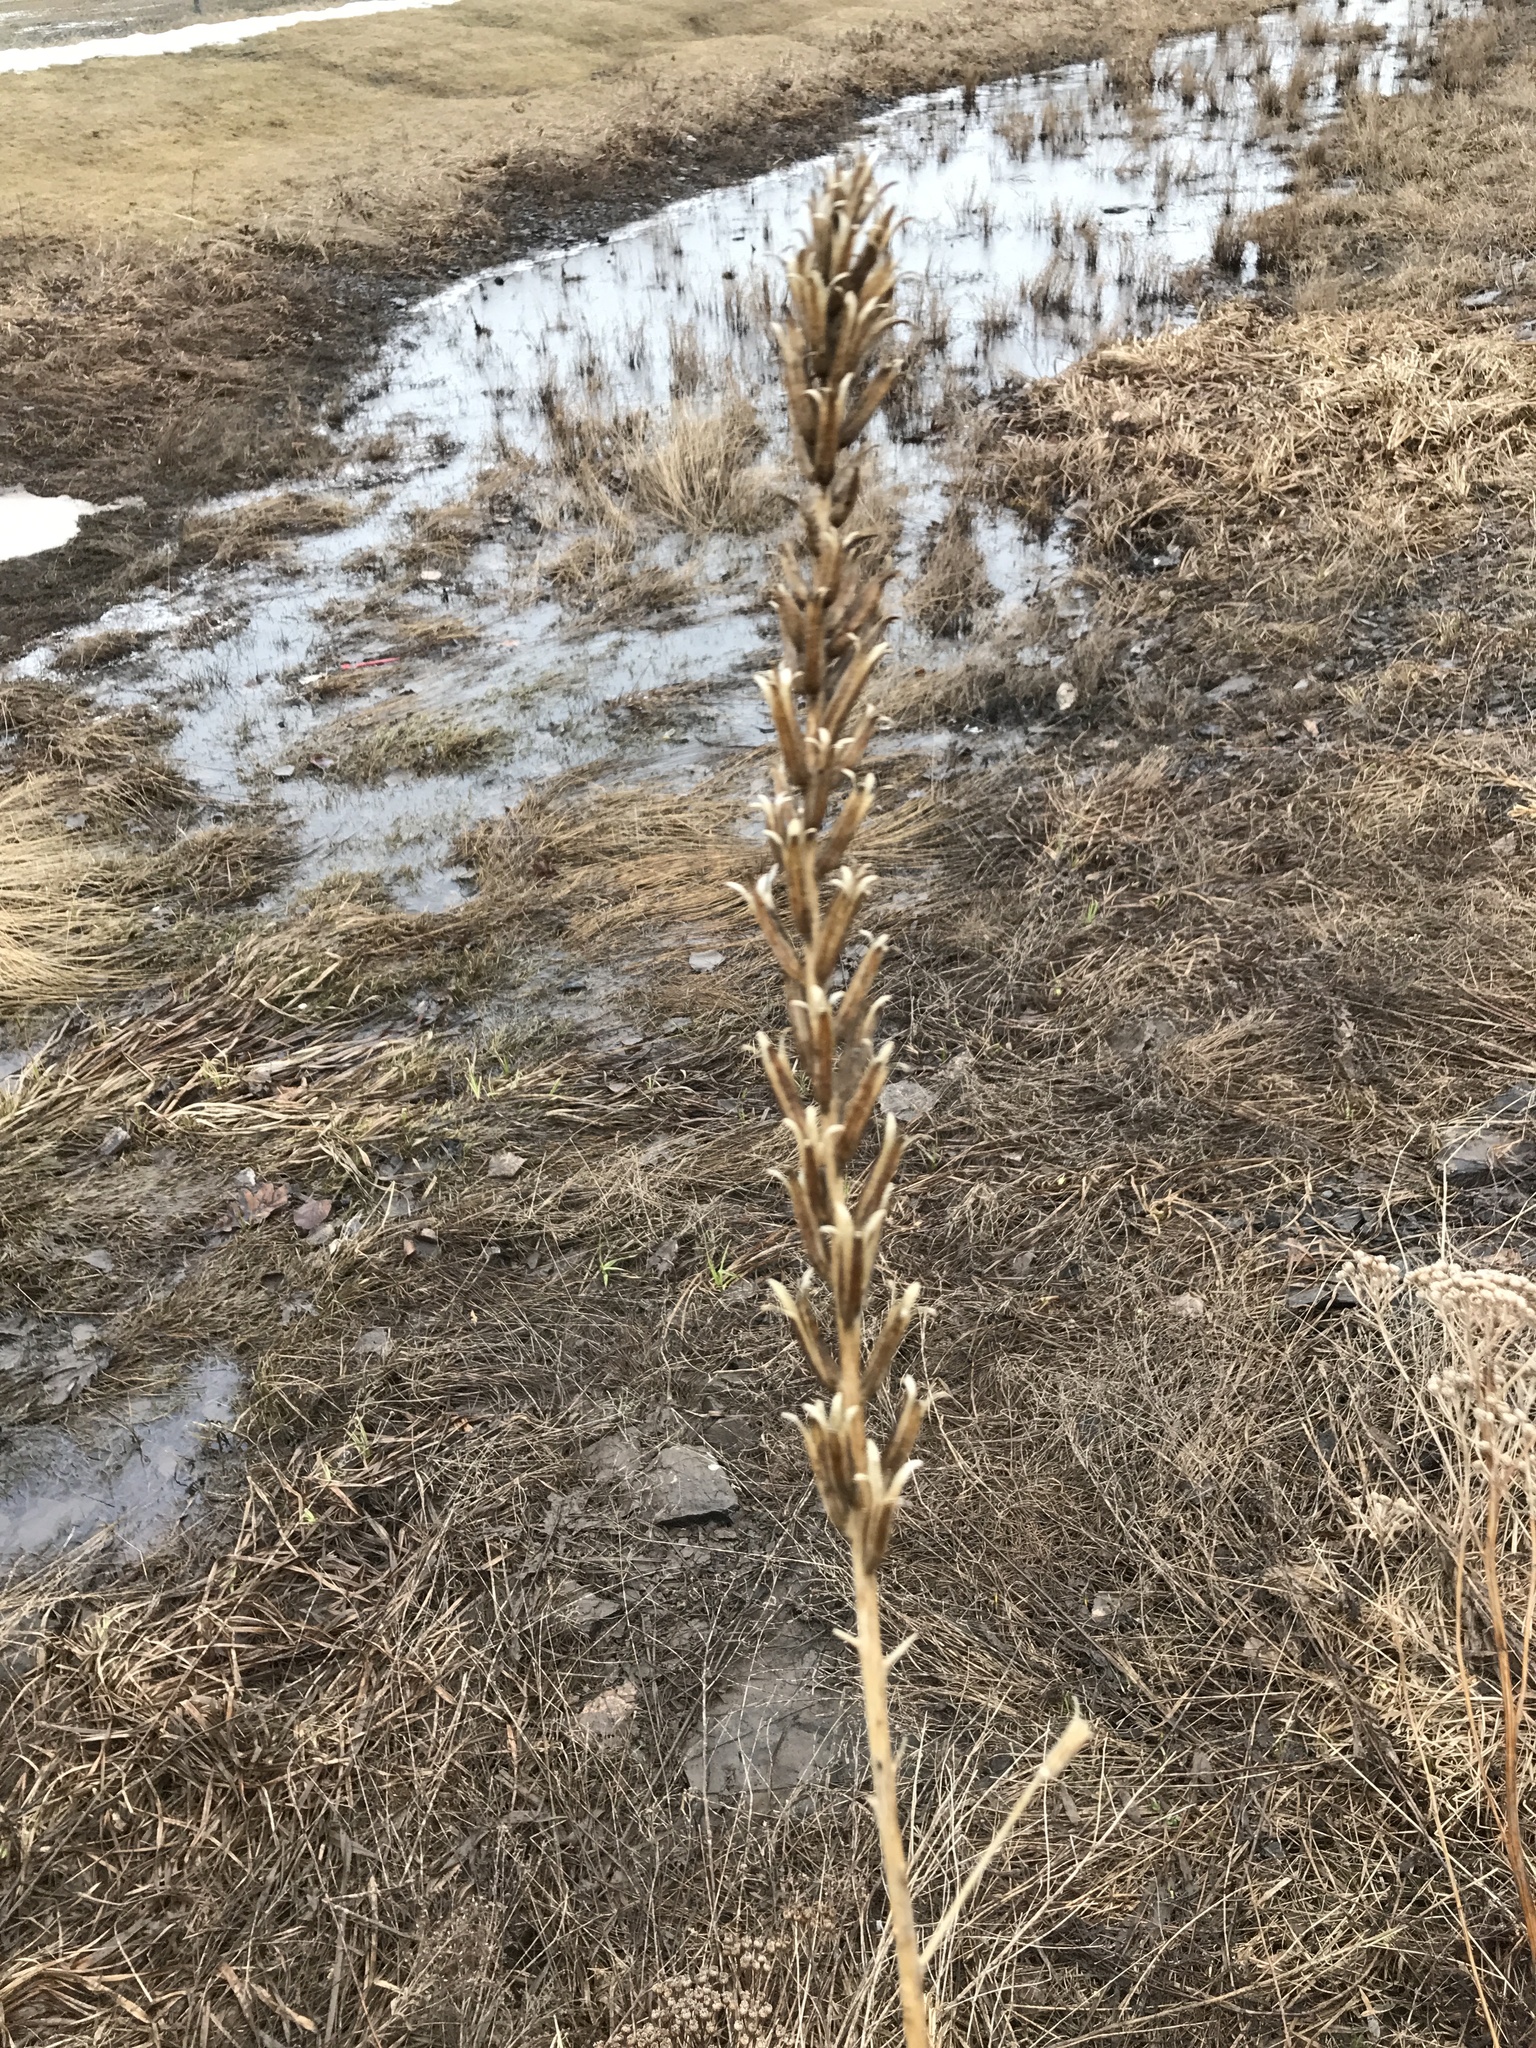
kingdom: Plantae
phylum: Tracheophyta
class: Magnoliopsida
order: Myrtales
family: Onagraceae
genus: Oenothera
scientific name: Oenothera biennis
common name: Common evening-primrose
